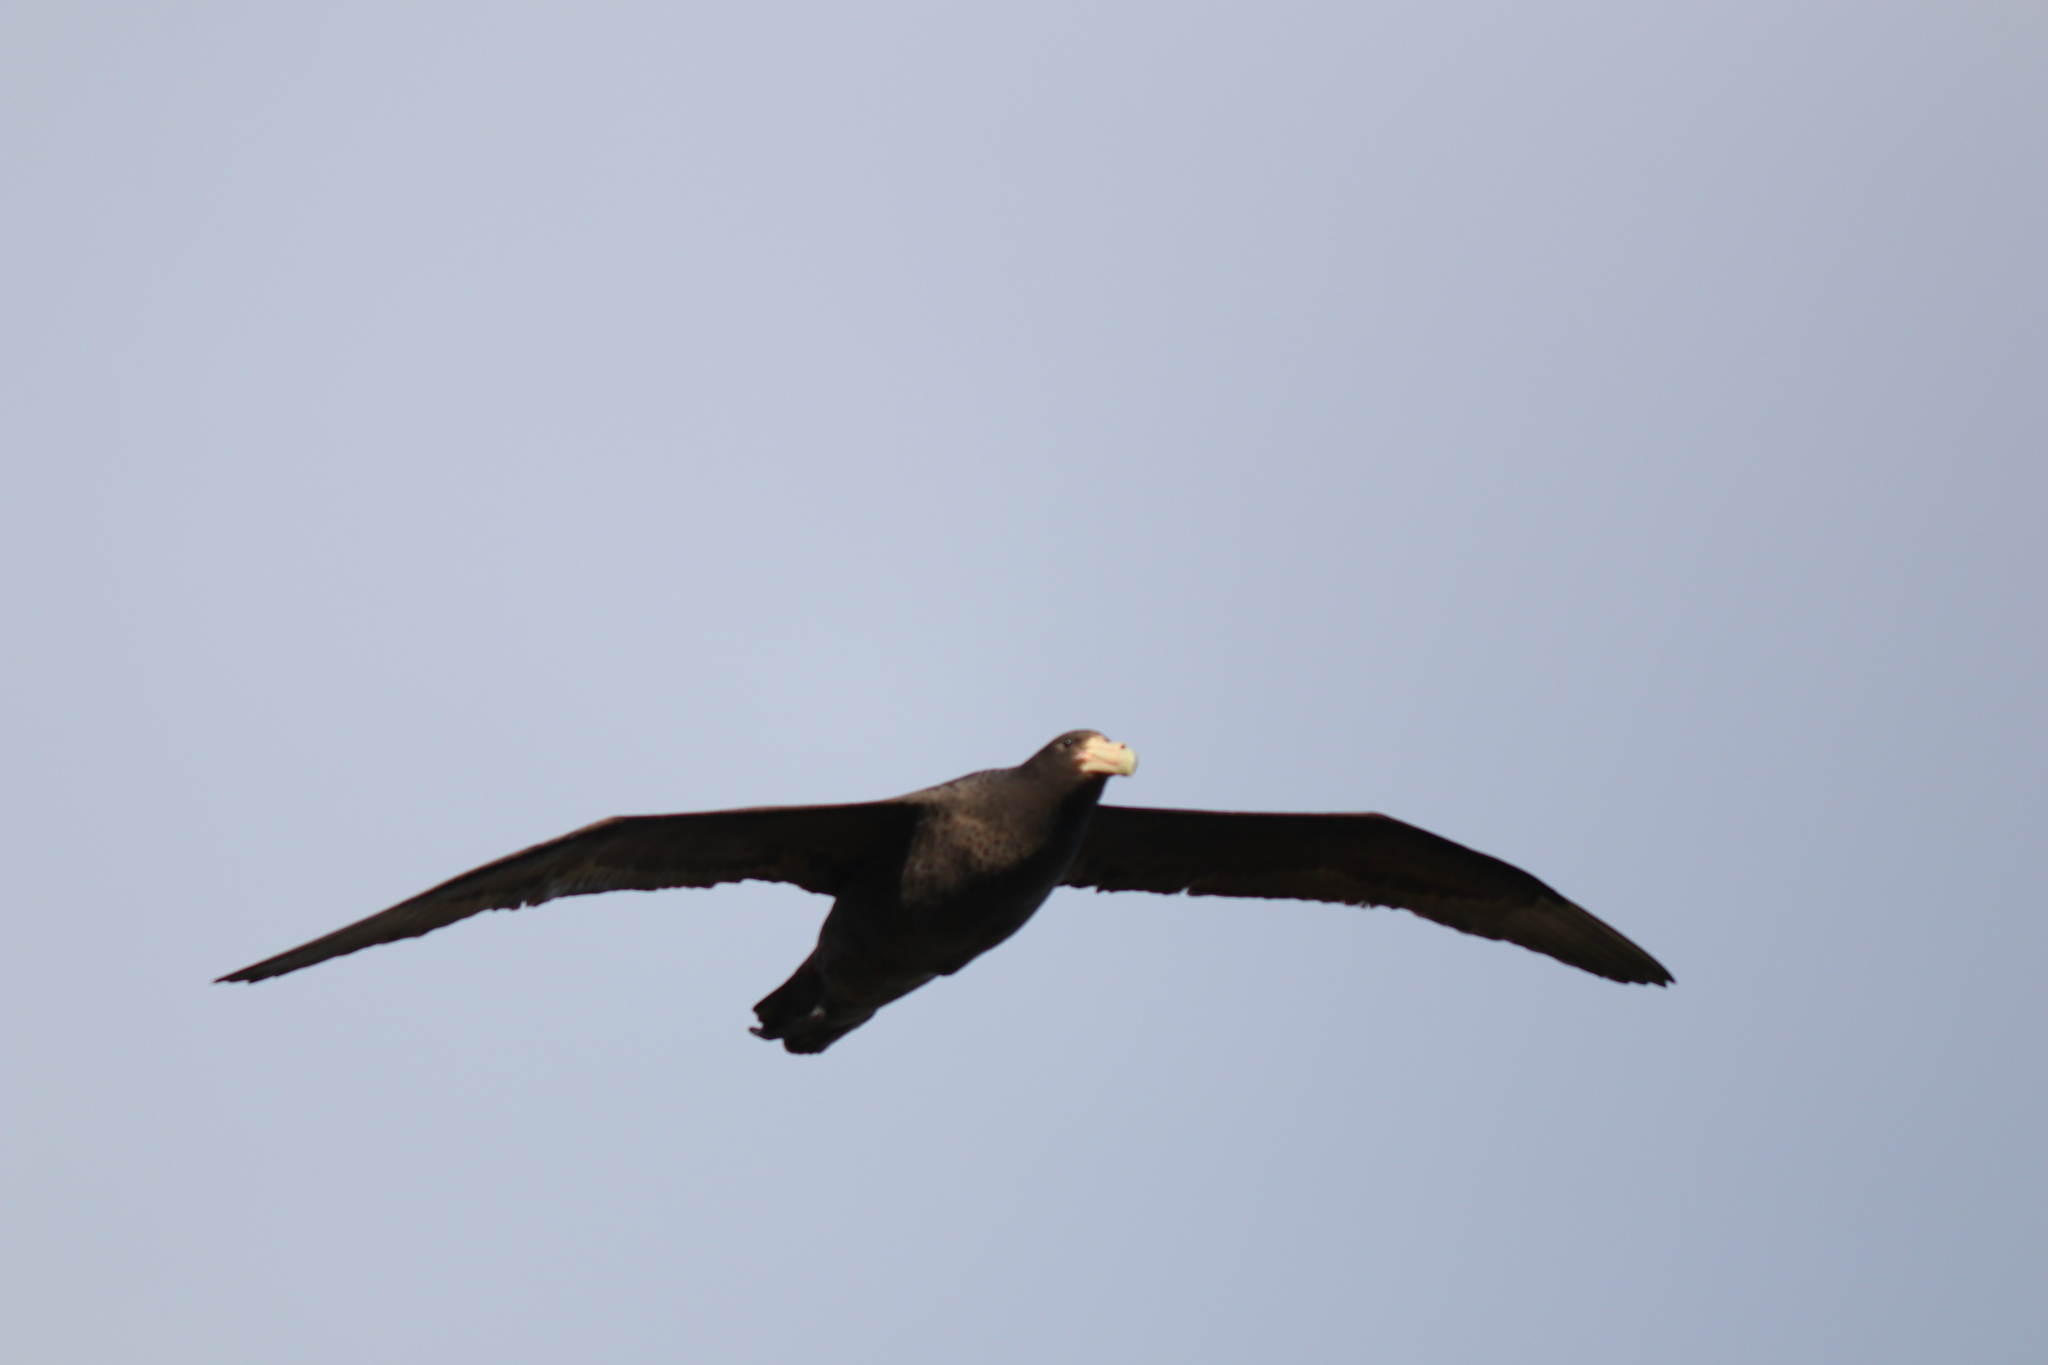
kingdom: Animalia
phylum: Chordata
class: Aves
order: Procellariiformes
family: Procellariidae
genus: Macronectes
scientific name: Macronectes giganteus
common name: Southern giant petrel
